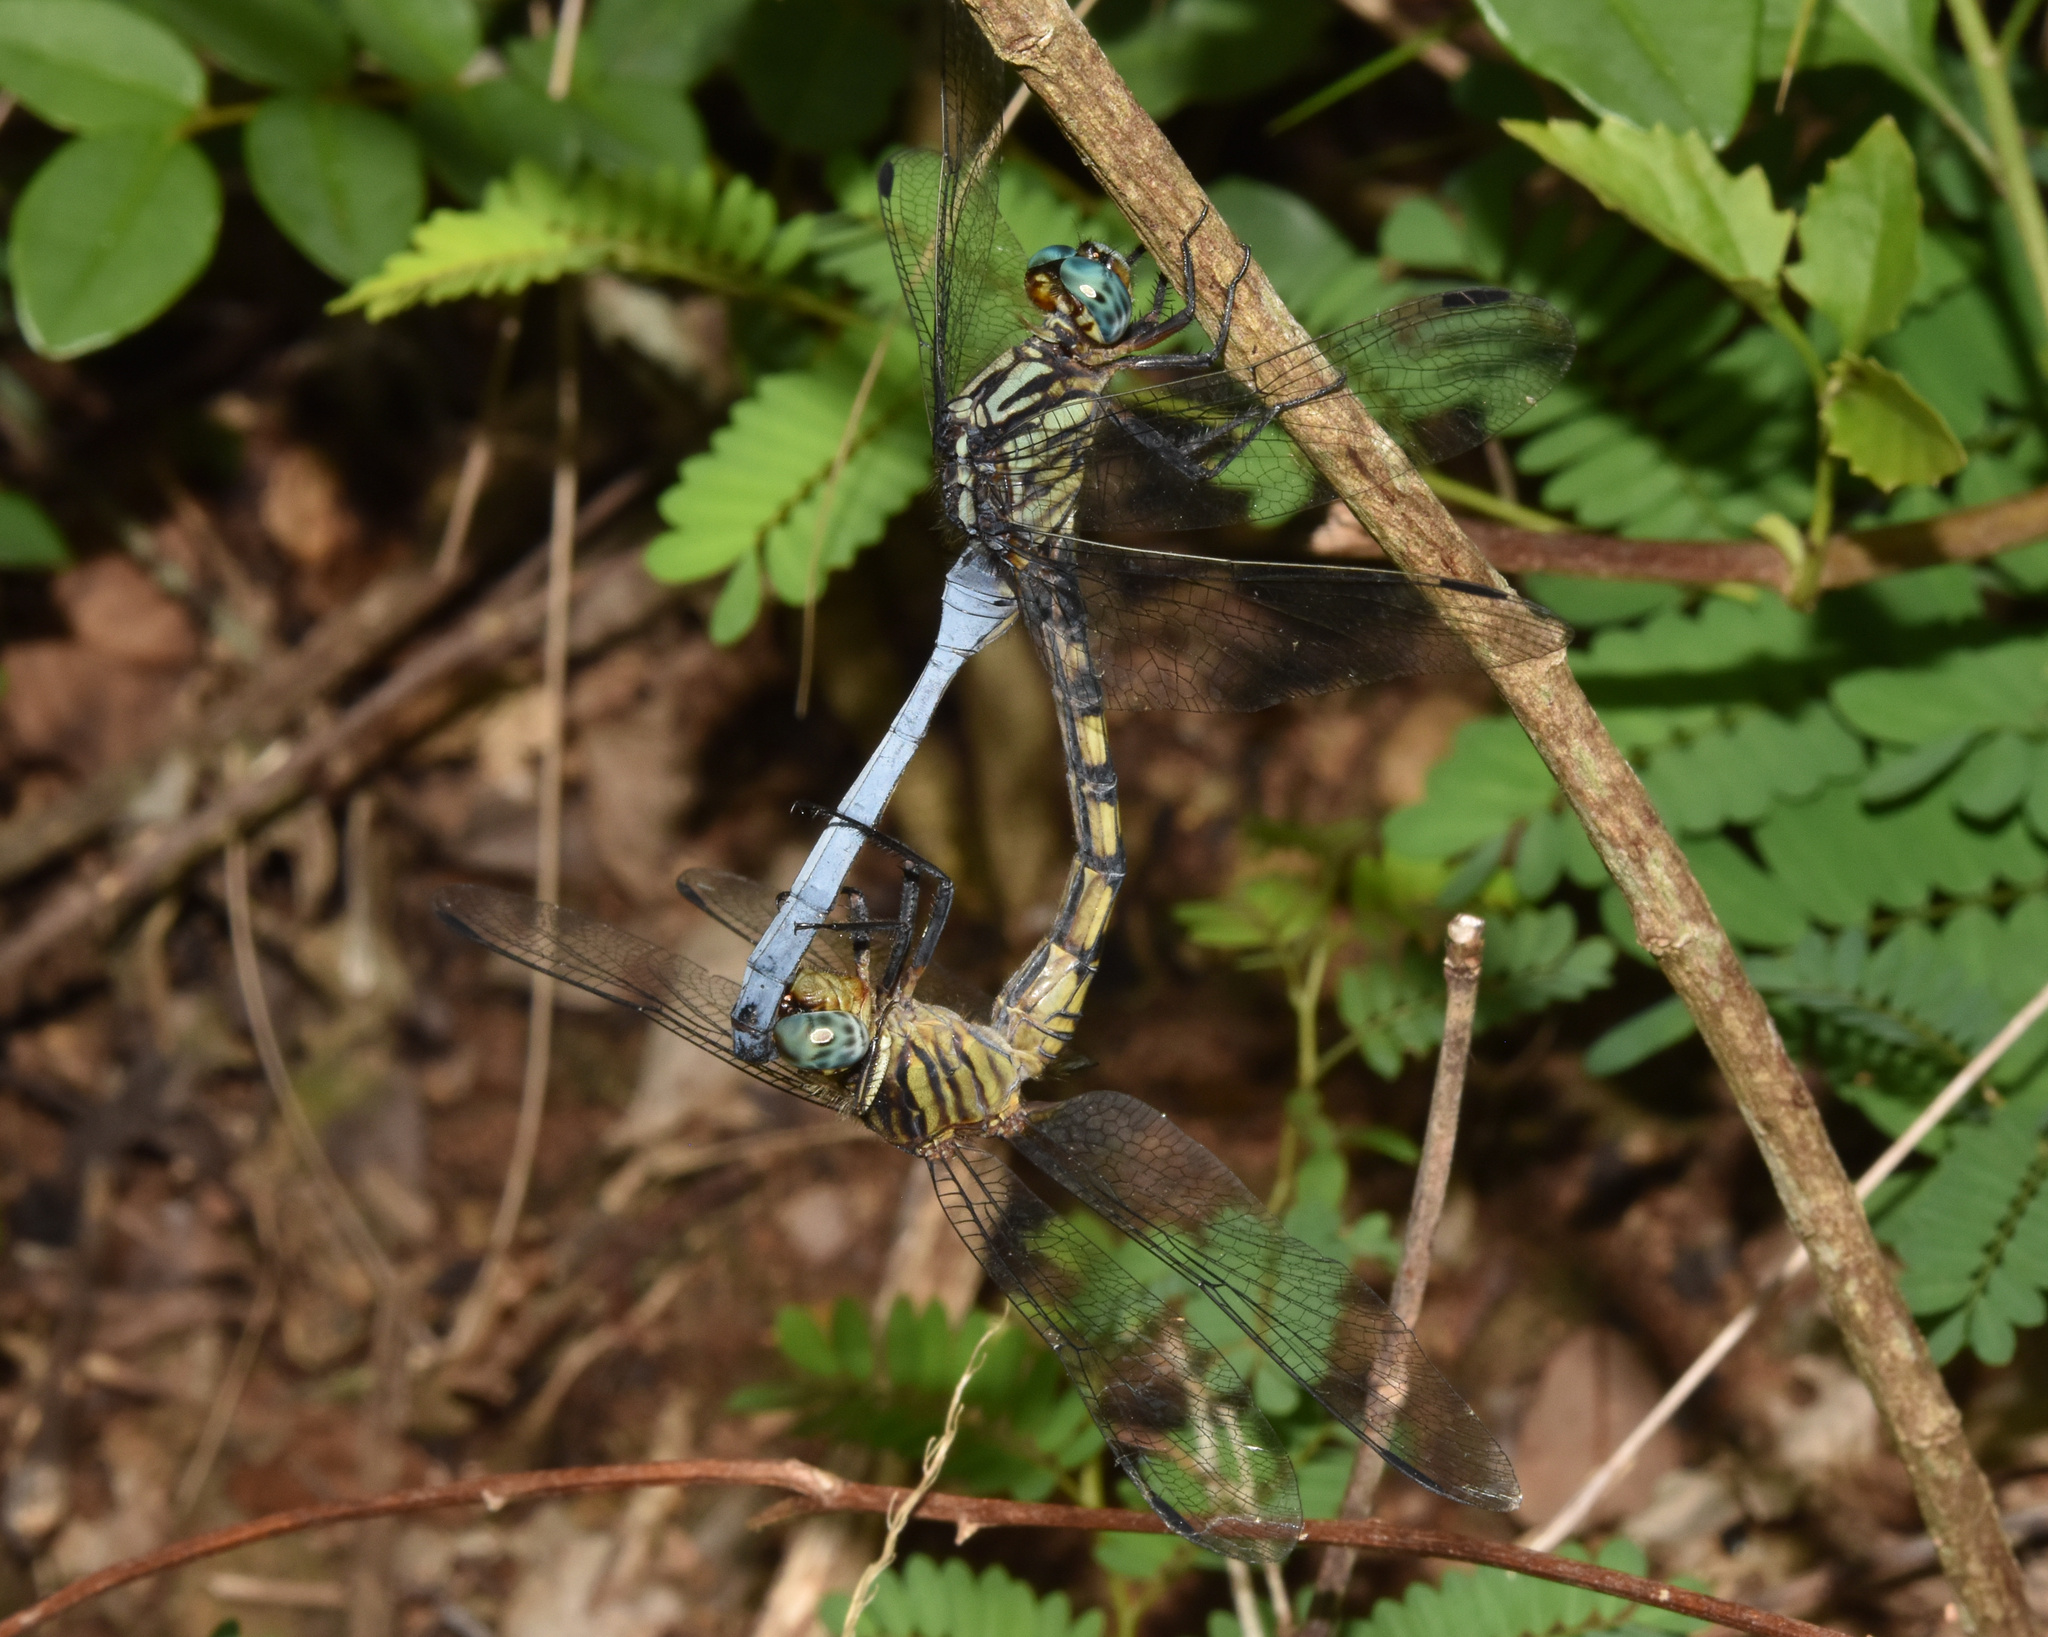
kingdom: Animalia
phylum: Arthropoda
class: Insecta
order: Odonata
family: Libellulidae
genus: Orthetrum
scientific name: Orthetrum julia
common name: Julia skimmer
